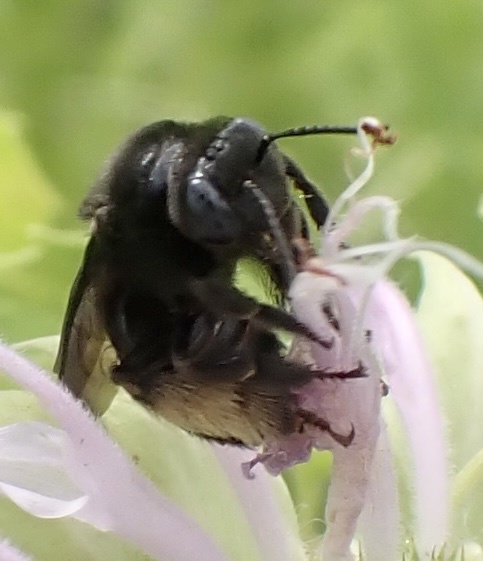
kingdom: Animalia
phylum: Arthropoda
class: Insecta
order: Hymenoptera
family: Apidae
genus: Melissodes
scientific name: Melissodes bimaculatus
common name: Two-spotted long-horned bee
